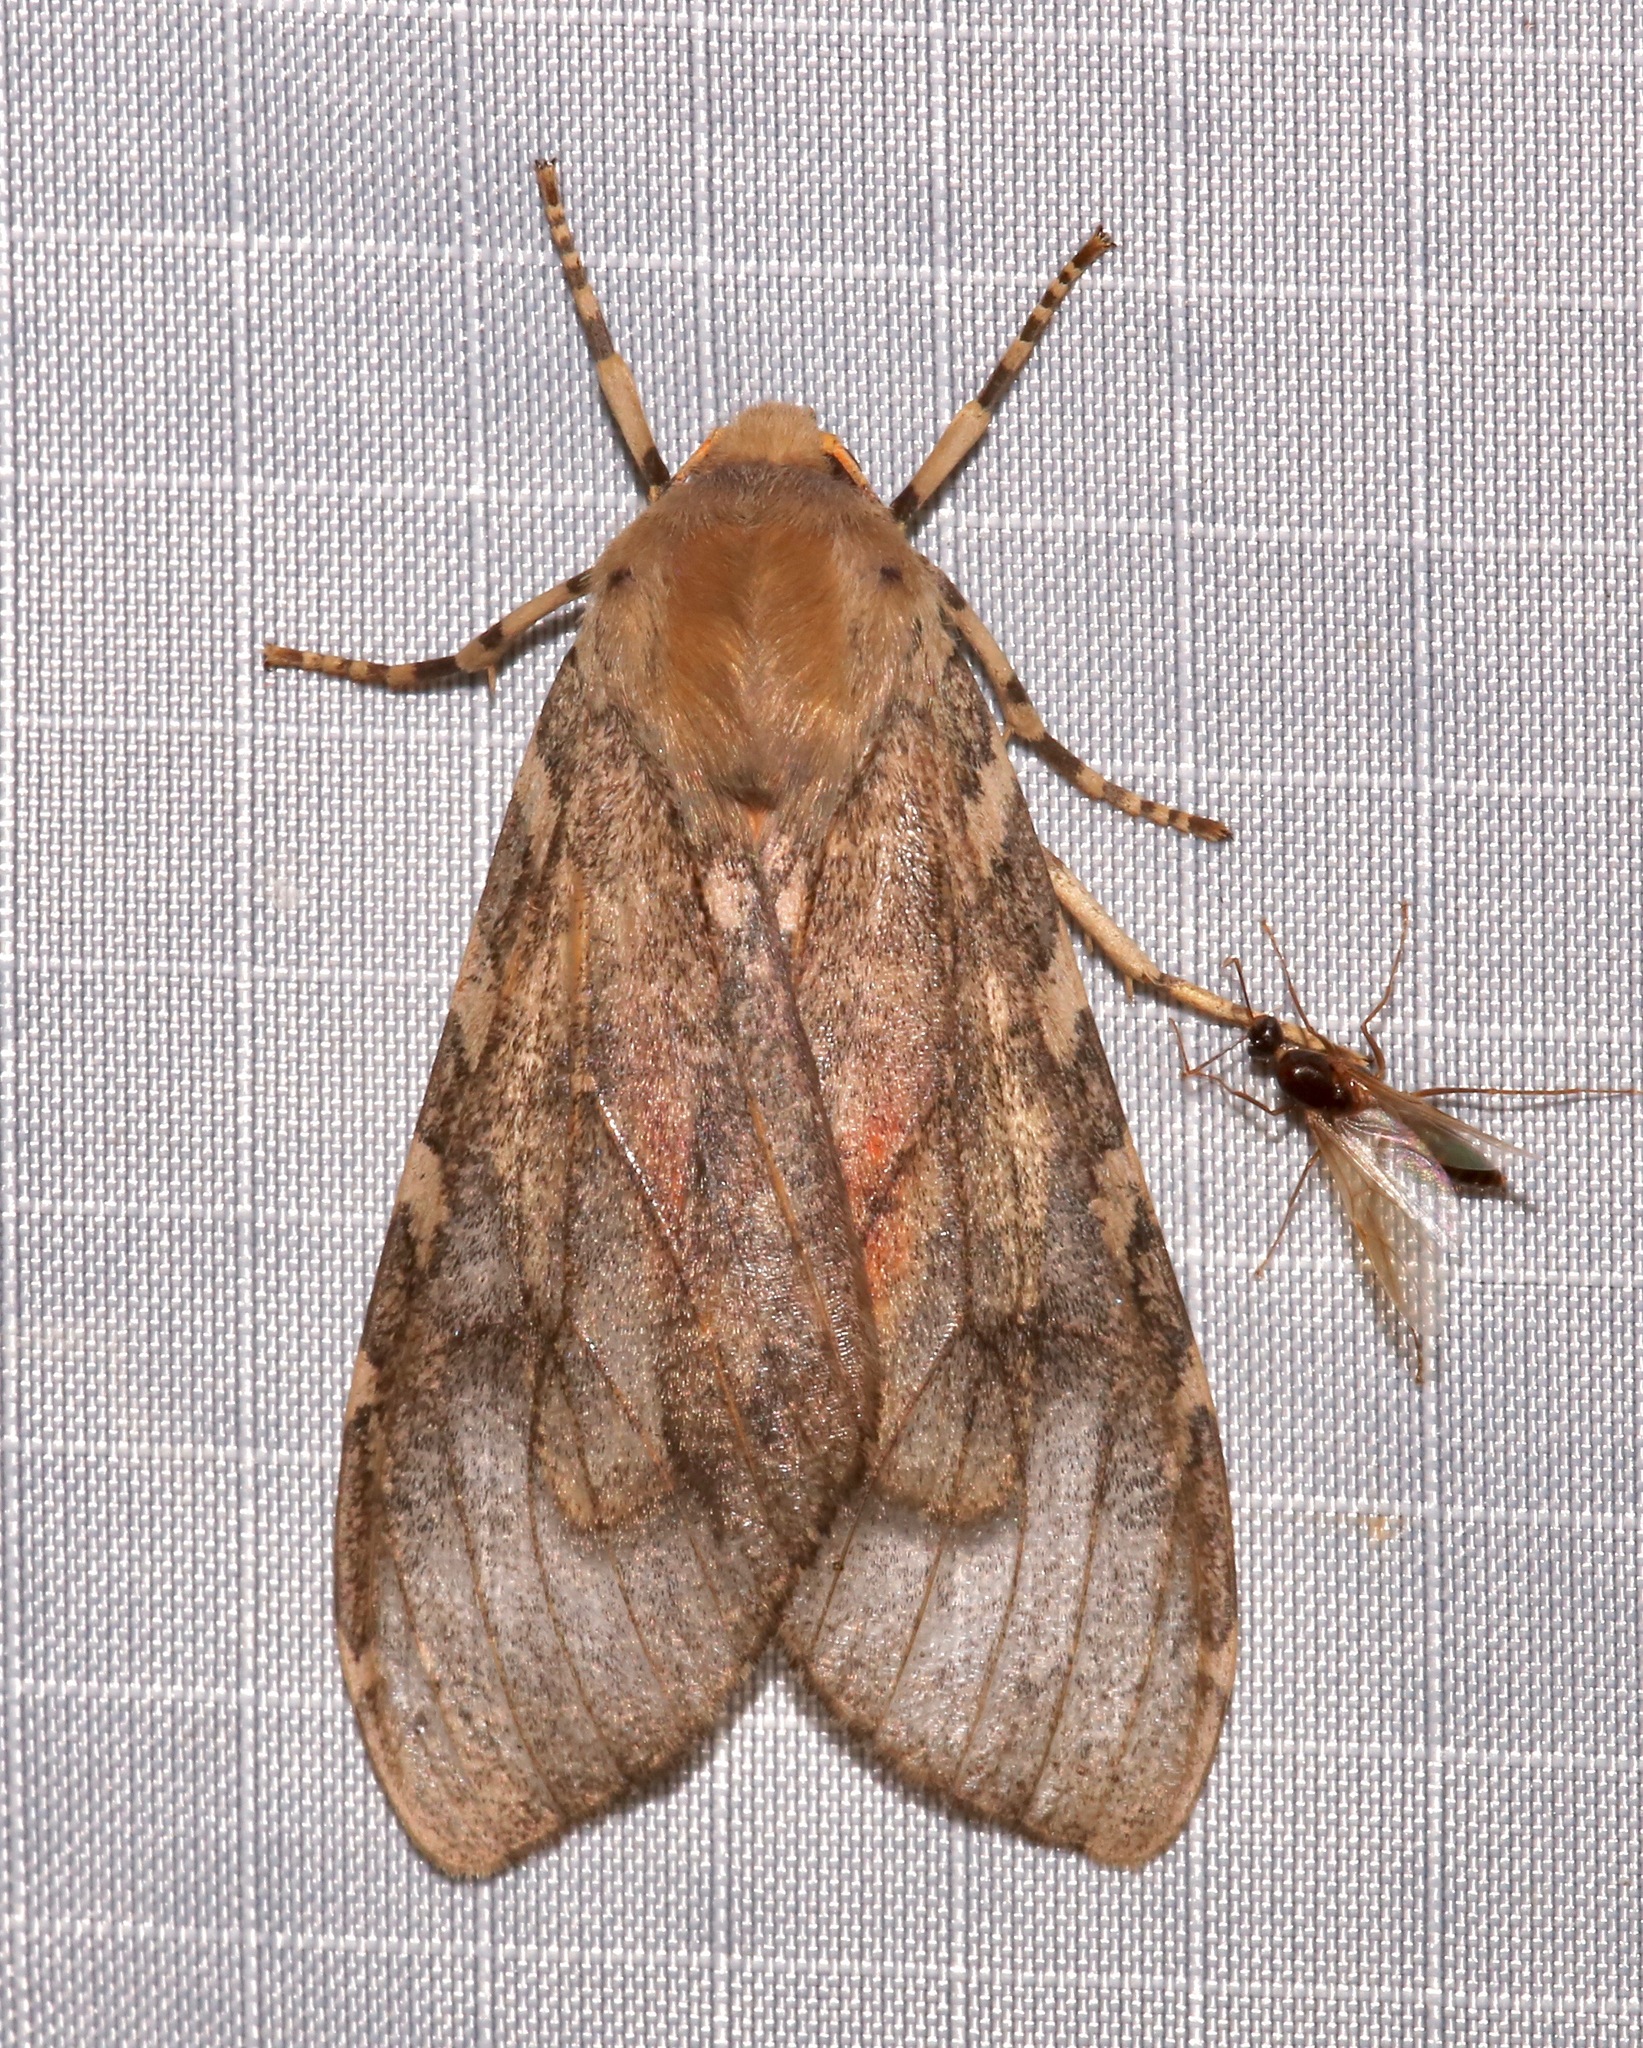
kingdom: Animalia
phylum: Arthropoda
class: Insecta
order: Lepidoptera
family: Erebidae
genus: Hemihyalea
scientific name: Hemihyalea labecula
